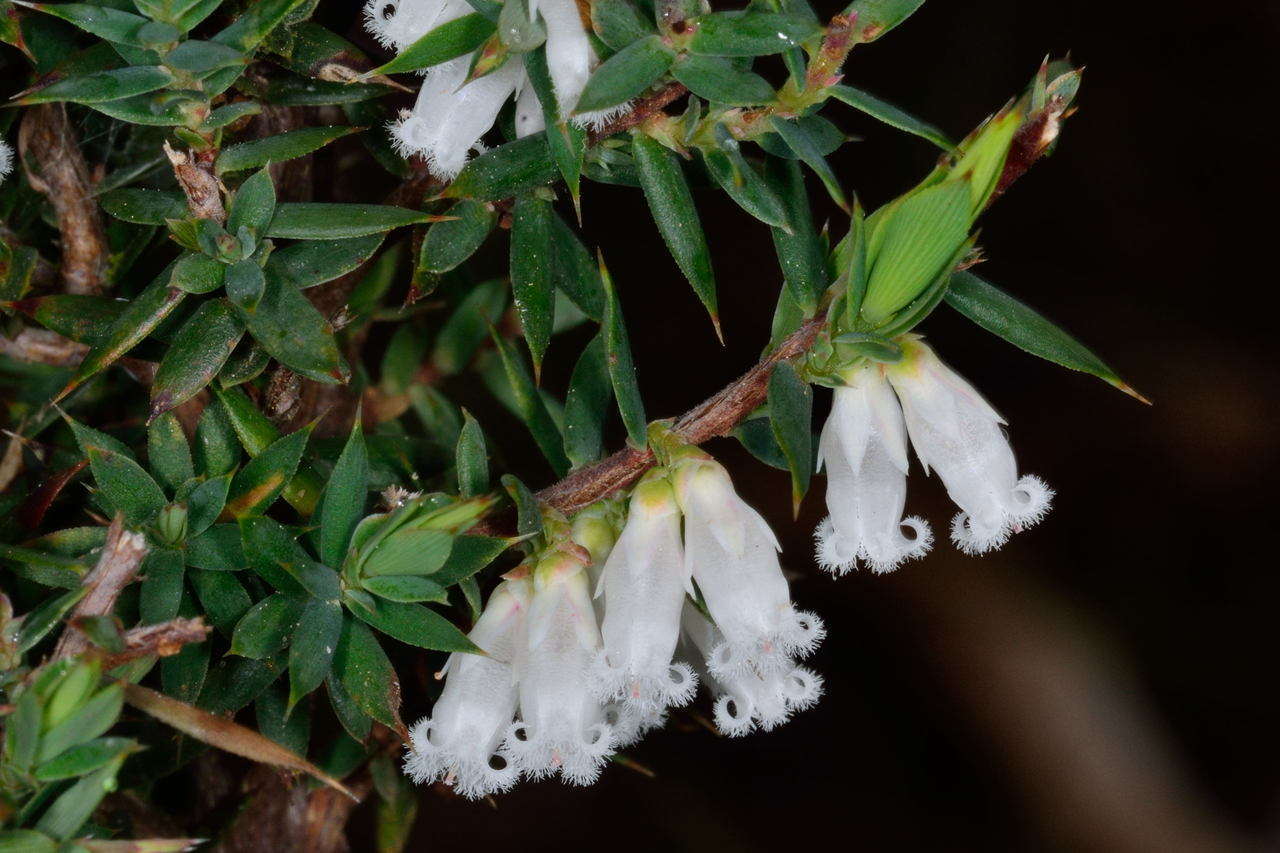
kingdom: Plantae
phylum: Tracheophyta
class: Magnoliopsida
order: Ericales
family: Ericaceae
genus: Styphelia
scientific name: Styphelia fletcheri
